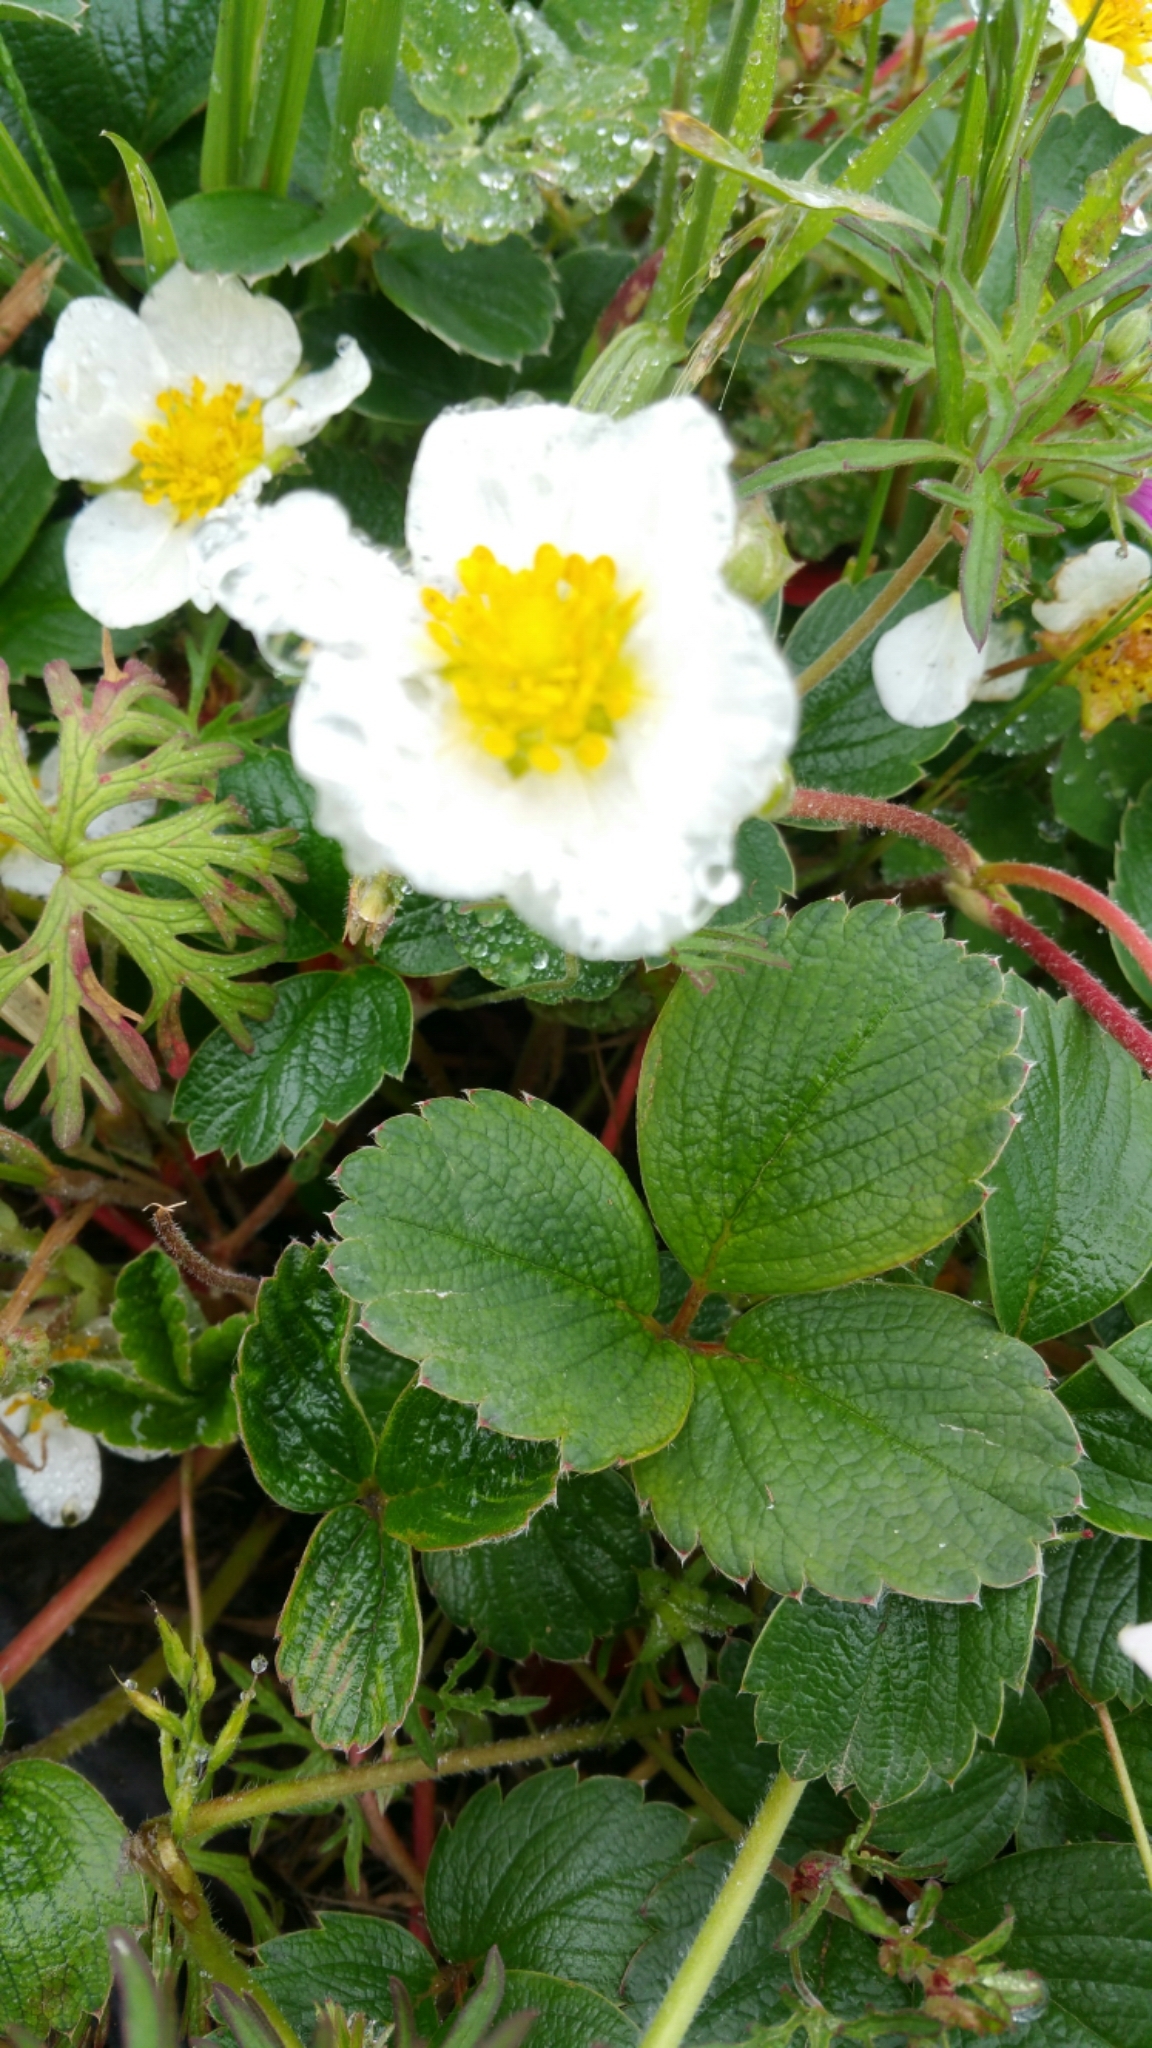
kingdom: Plantae
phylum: Tracheophyta
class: Magnoliopsida
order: Rosales
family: Rosaceae
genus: Fragaria
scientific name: Fragaria chiloensis
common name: Beach strawberry
